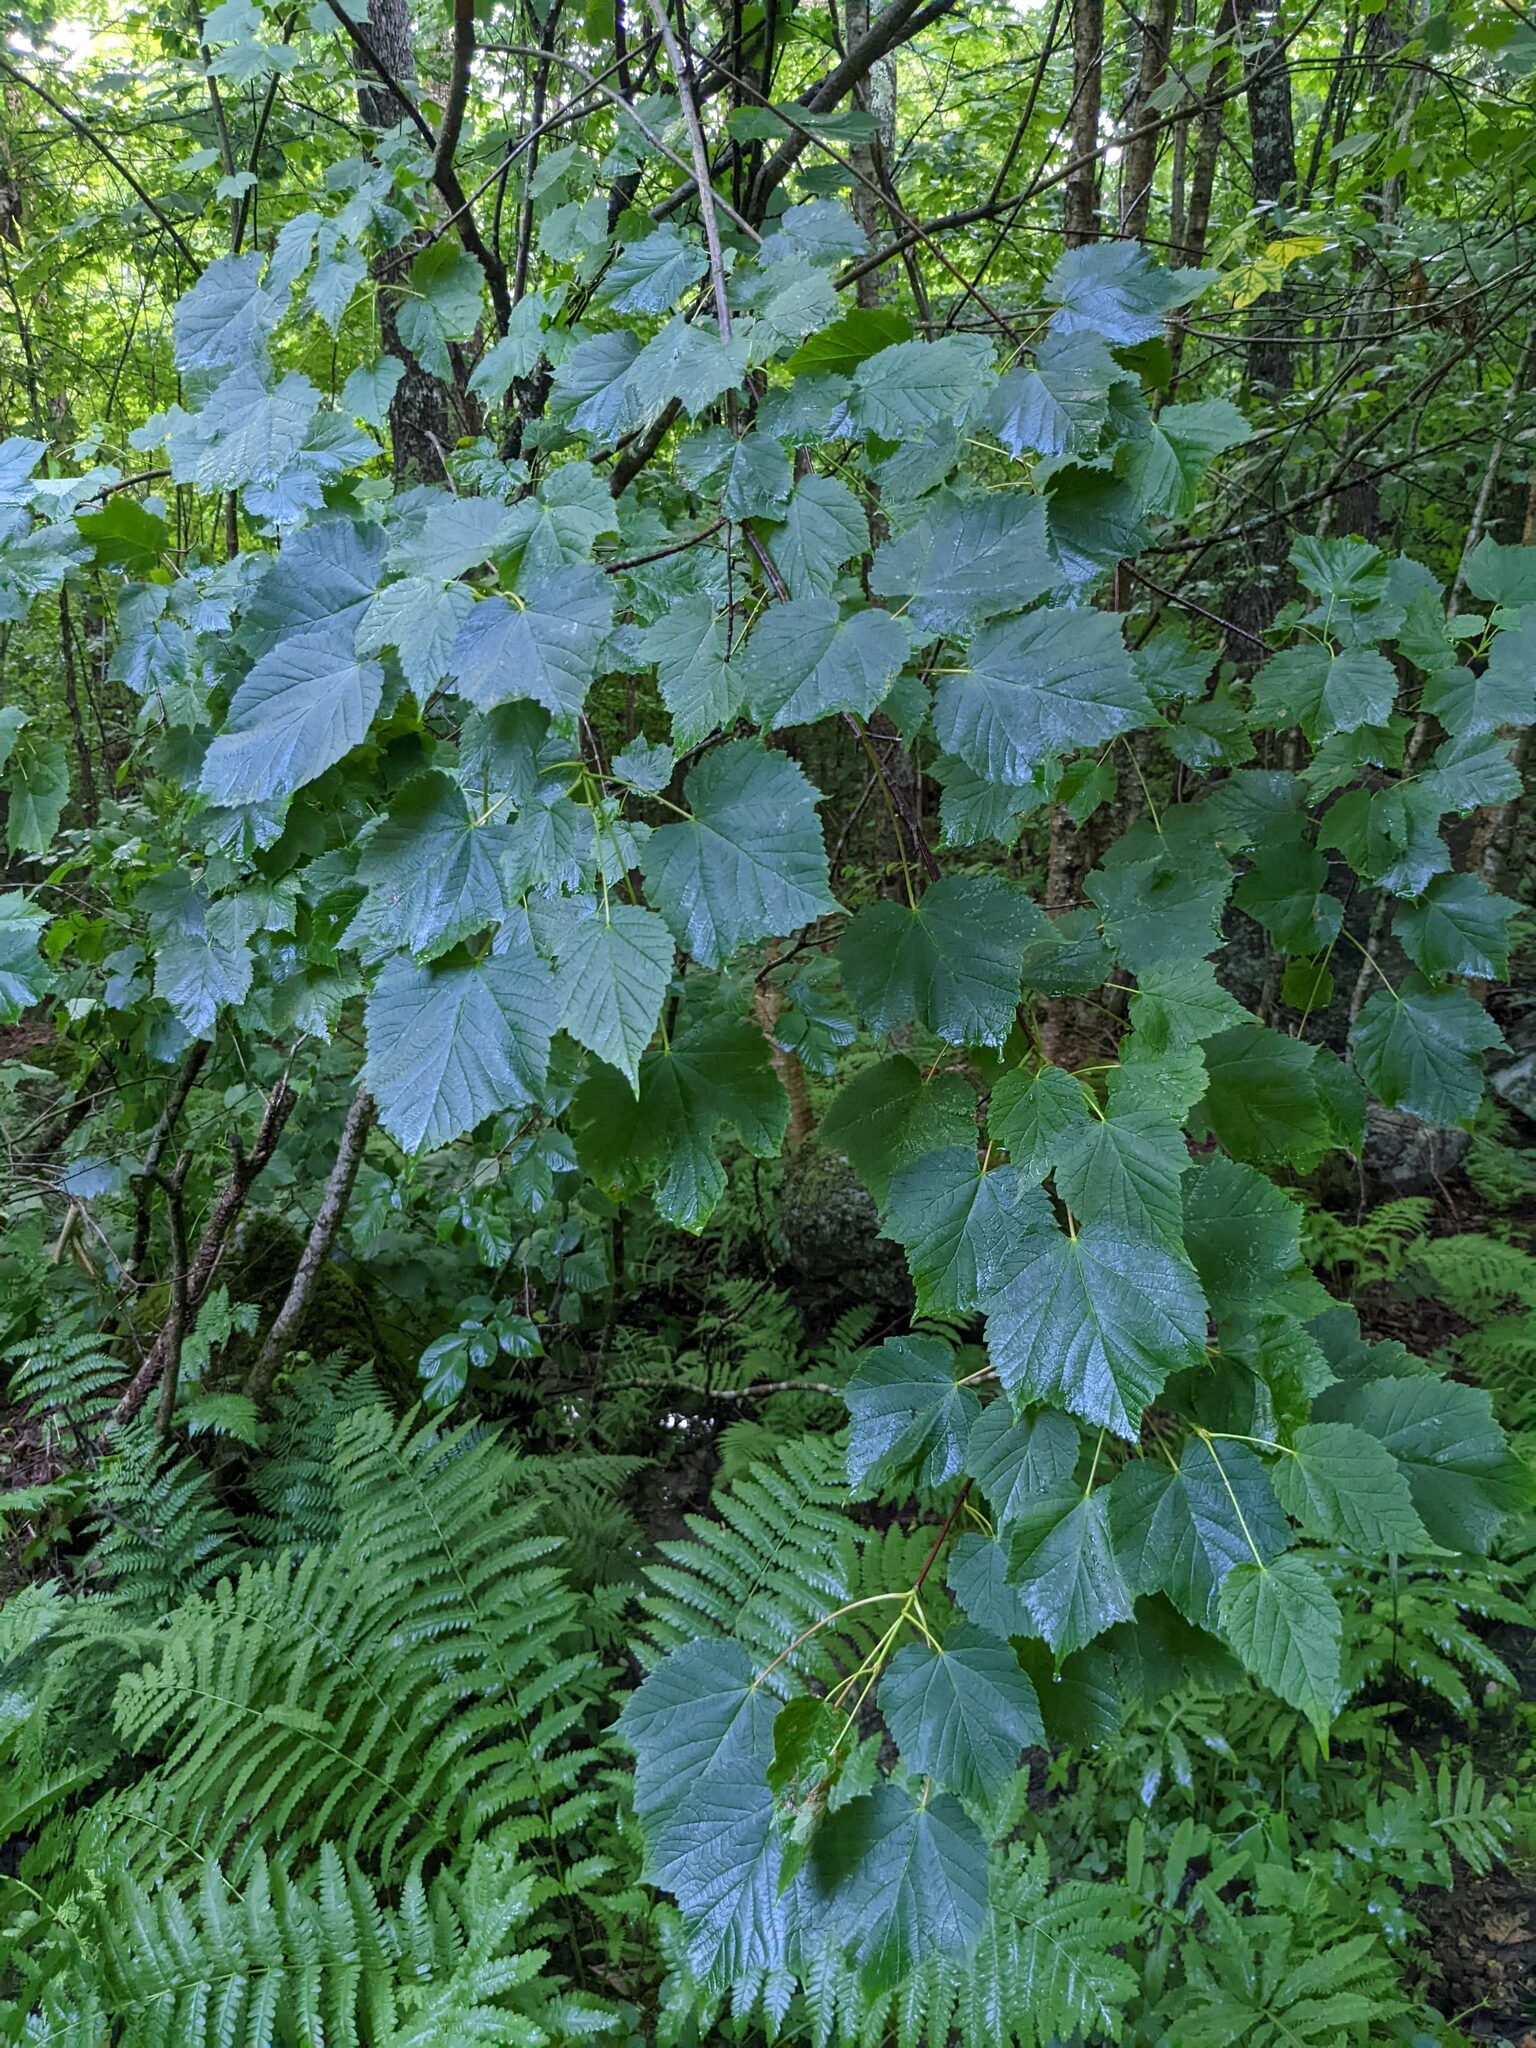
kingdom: Plantae
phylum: Tracheophyta
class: Magnoliopsida
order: Sapindales
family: Sapindaceae
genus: Acer
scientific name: Acer spicatum
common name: Mountain maple
